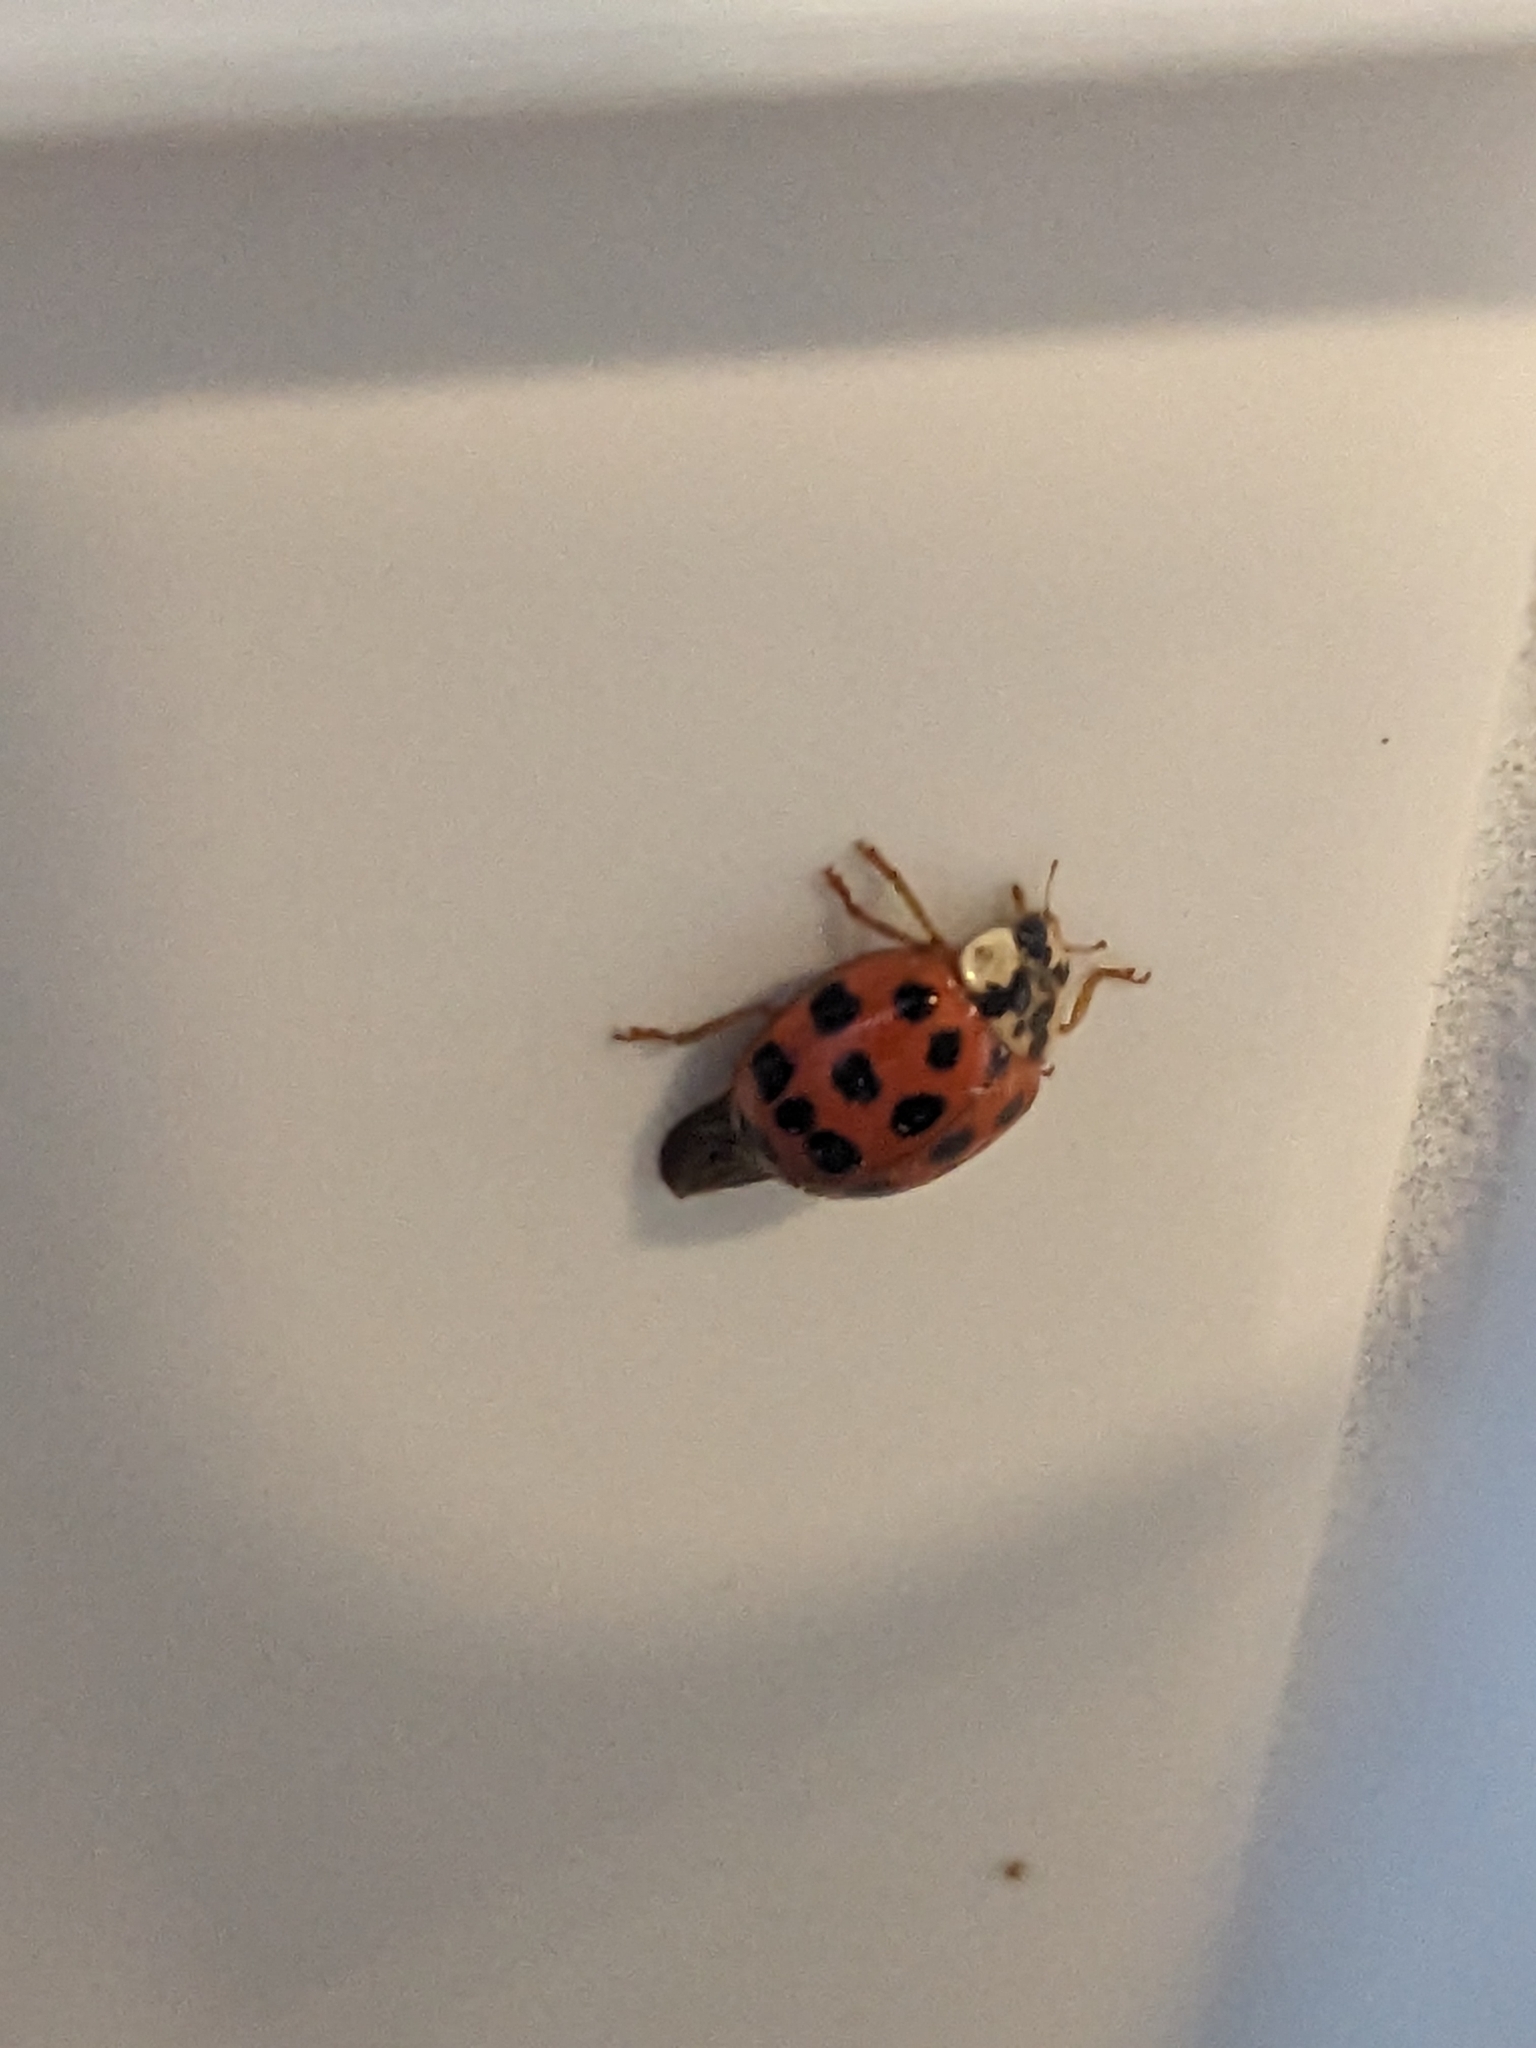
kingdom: Animalia
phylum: Arthropoda
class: Insecta
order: Coleoptera
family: Coccinellidae
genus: Harmonia
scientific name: Harmonia axyridis
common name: Harlequin ladybird
